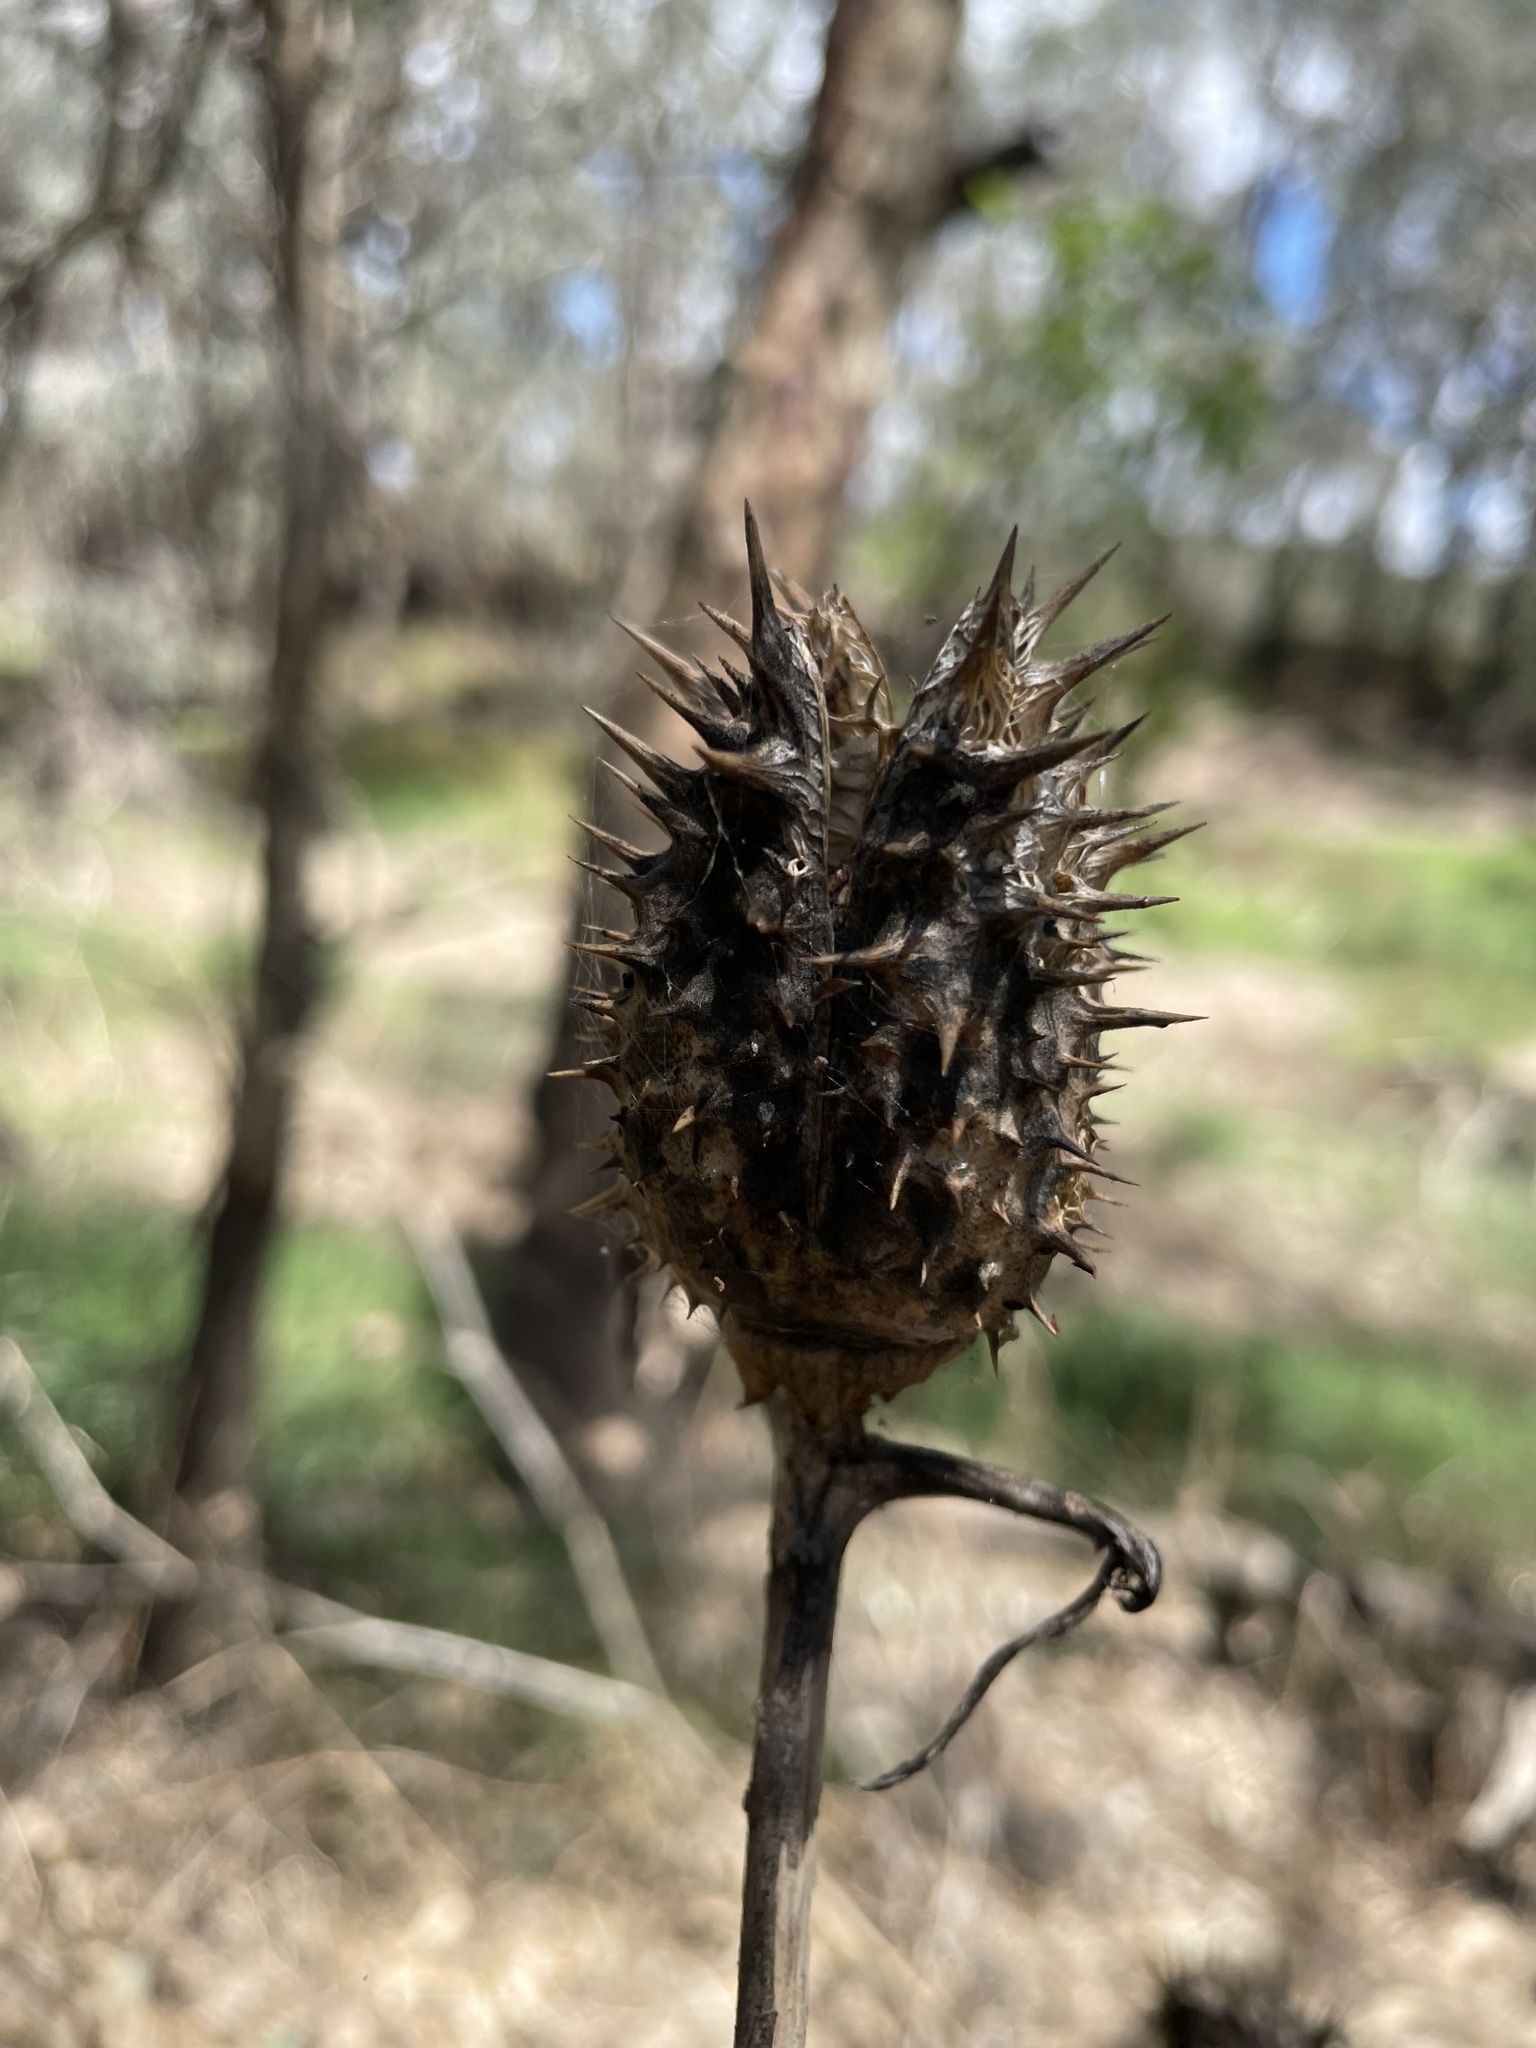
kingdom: Plantae
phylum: Tracheophyta
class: Magnoliopsida
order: Solanales
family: Solanaceae
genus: Datura
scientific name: Datura stramonium
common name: Thorn-apple
